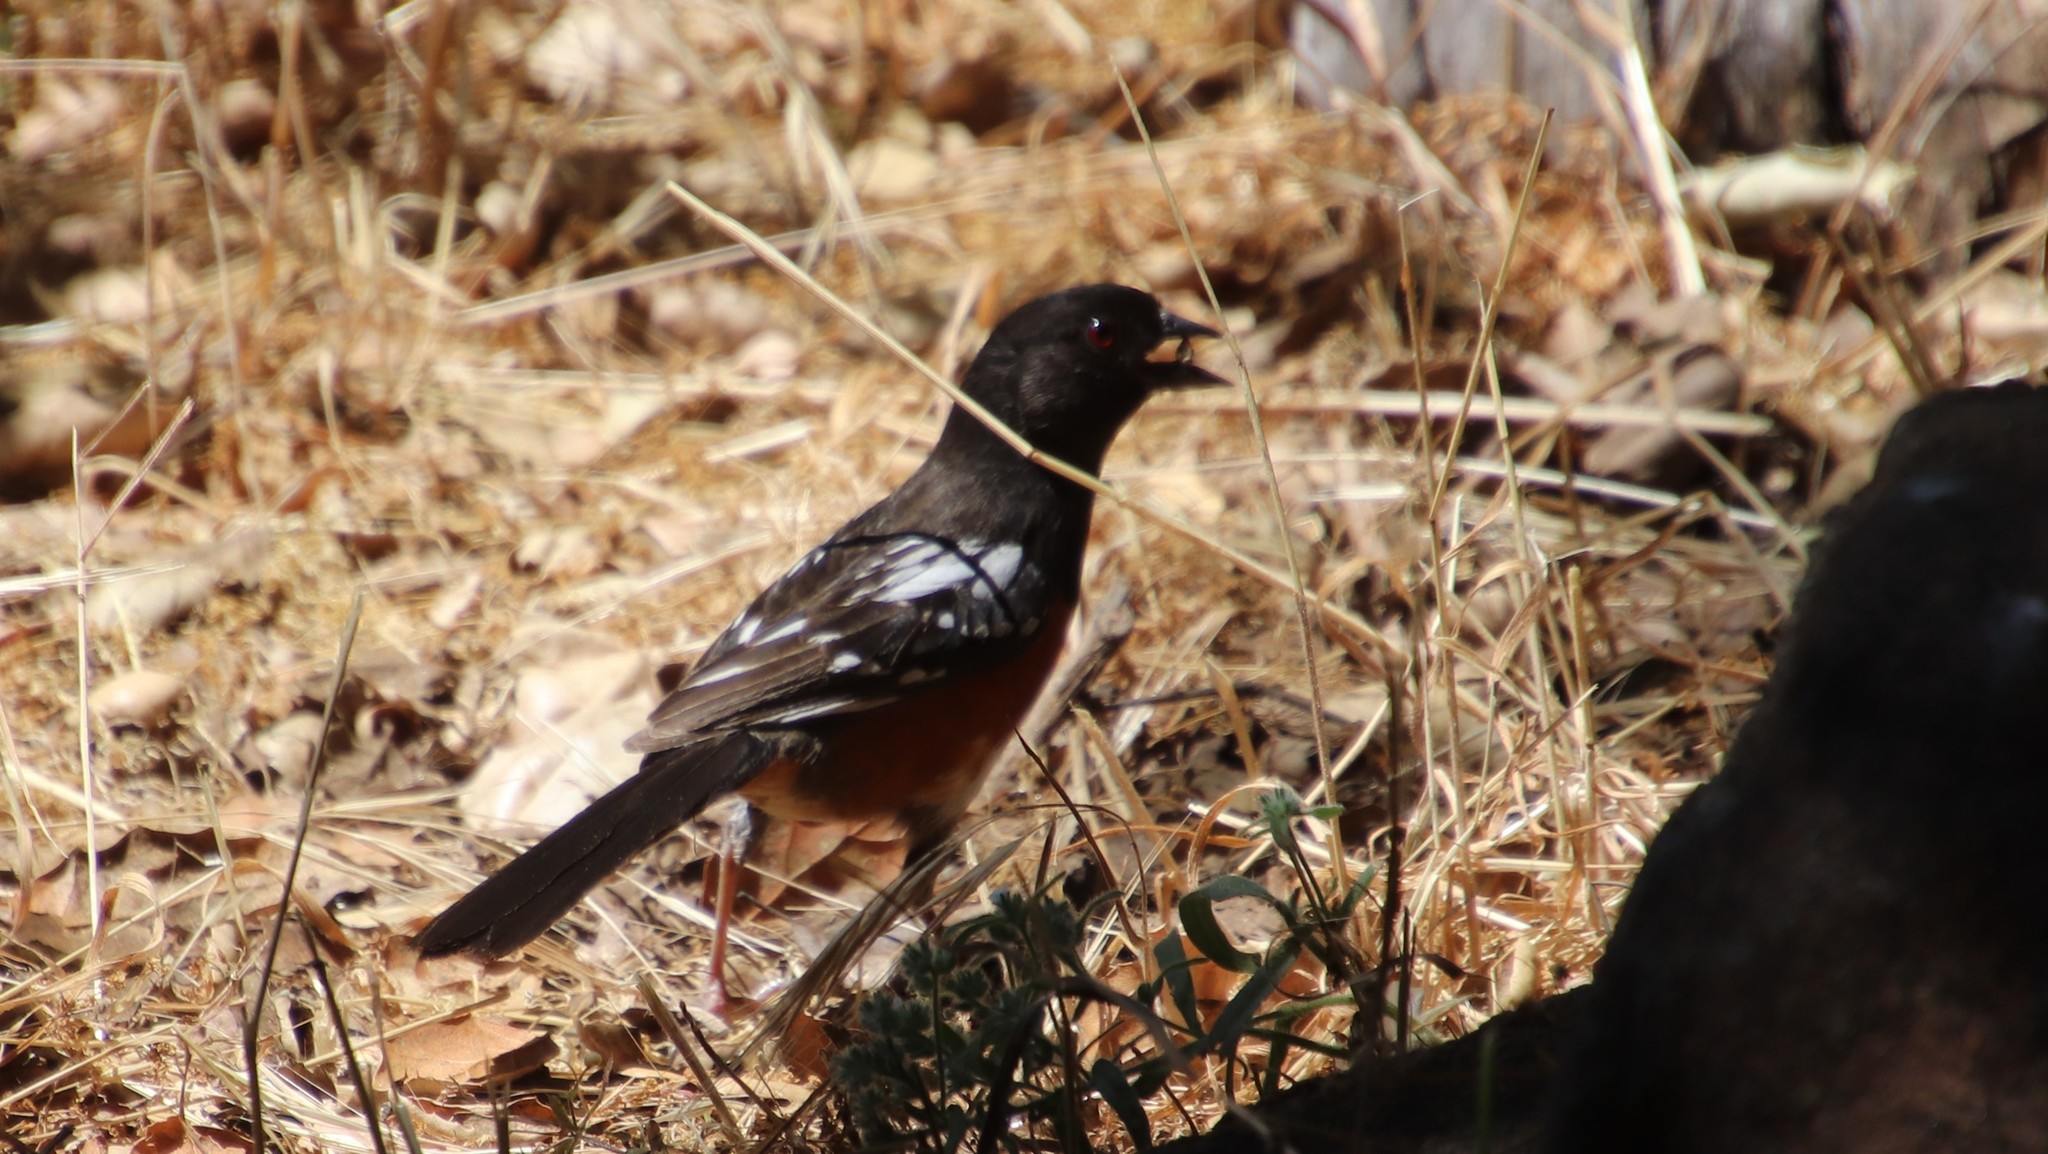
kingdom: Animalia
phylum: Chordata
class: Aves
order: Passeriformes
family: Passerellidae
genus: Pipilo
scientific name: Pipilo maculatus
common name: Spotted towhee
